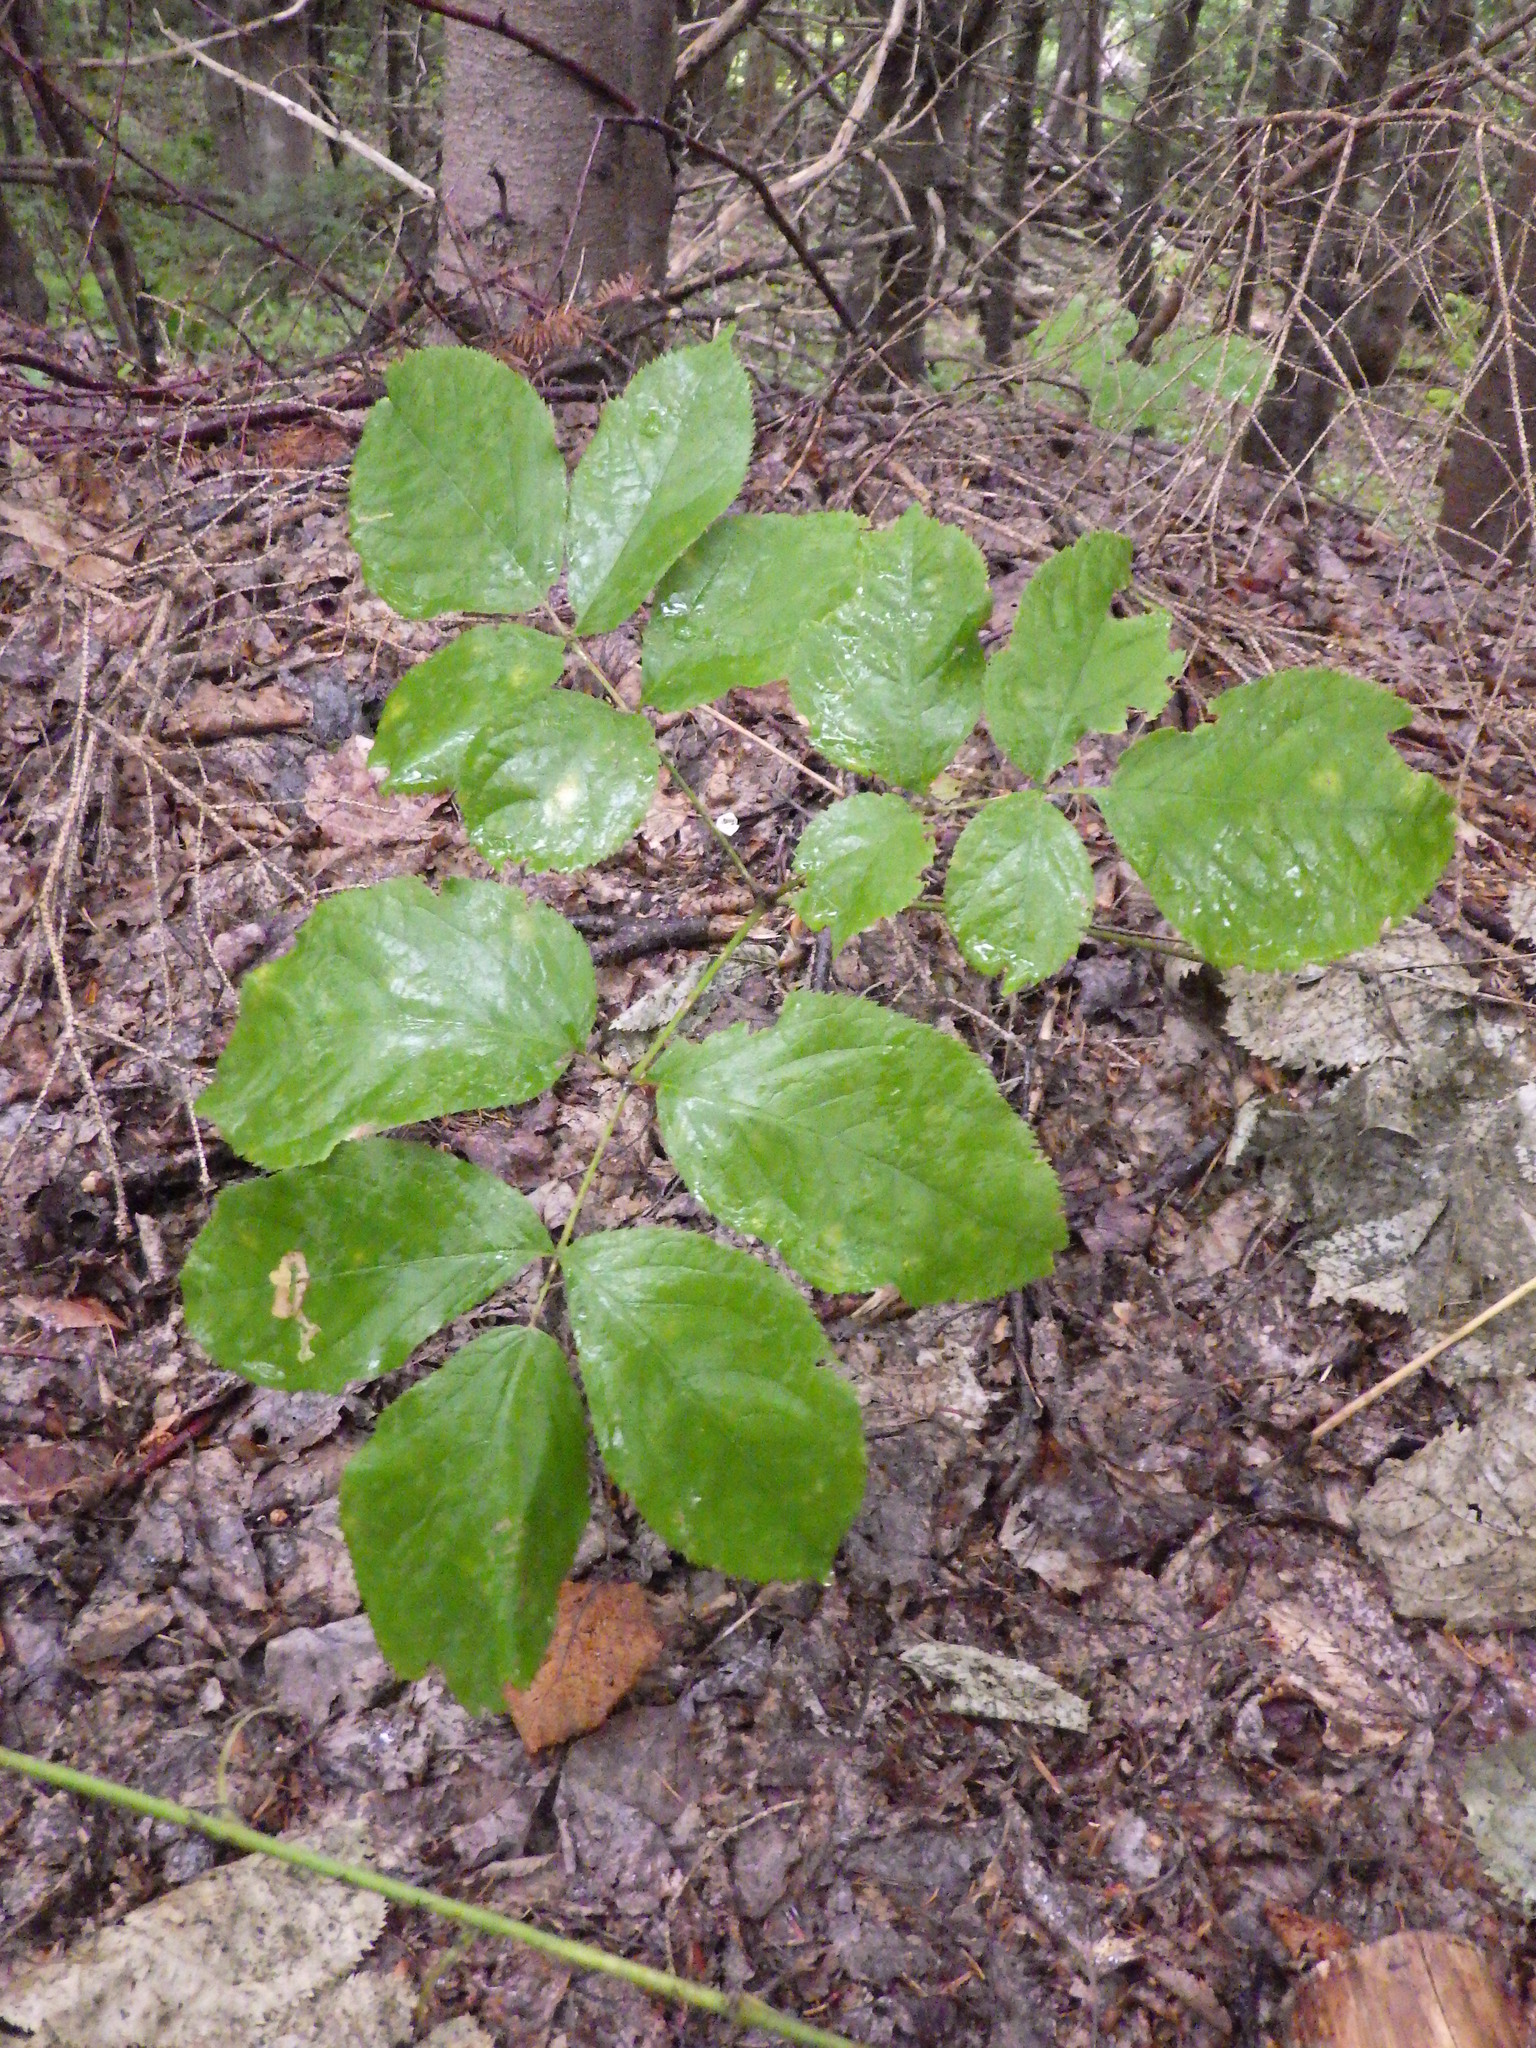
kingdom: Plantae
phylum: Tracheophyta
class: Magnoliopsida
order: Apiales
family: Araliaceae
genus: Aralia
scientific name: Aralia nudicaulis
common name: Wild sarsaparilla
